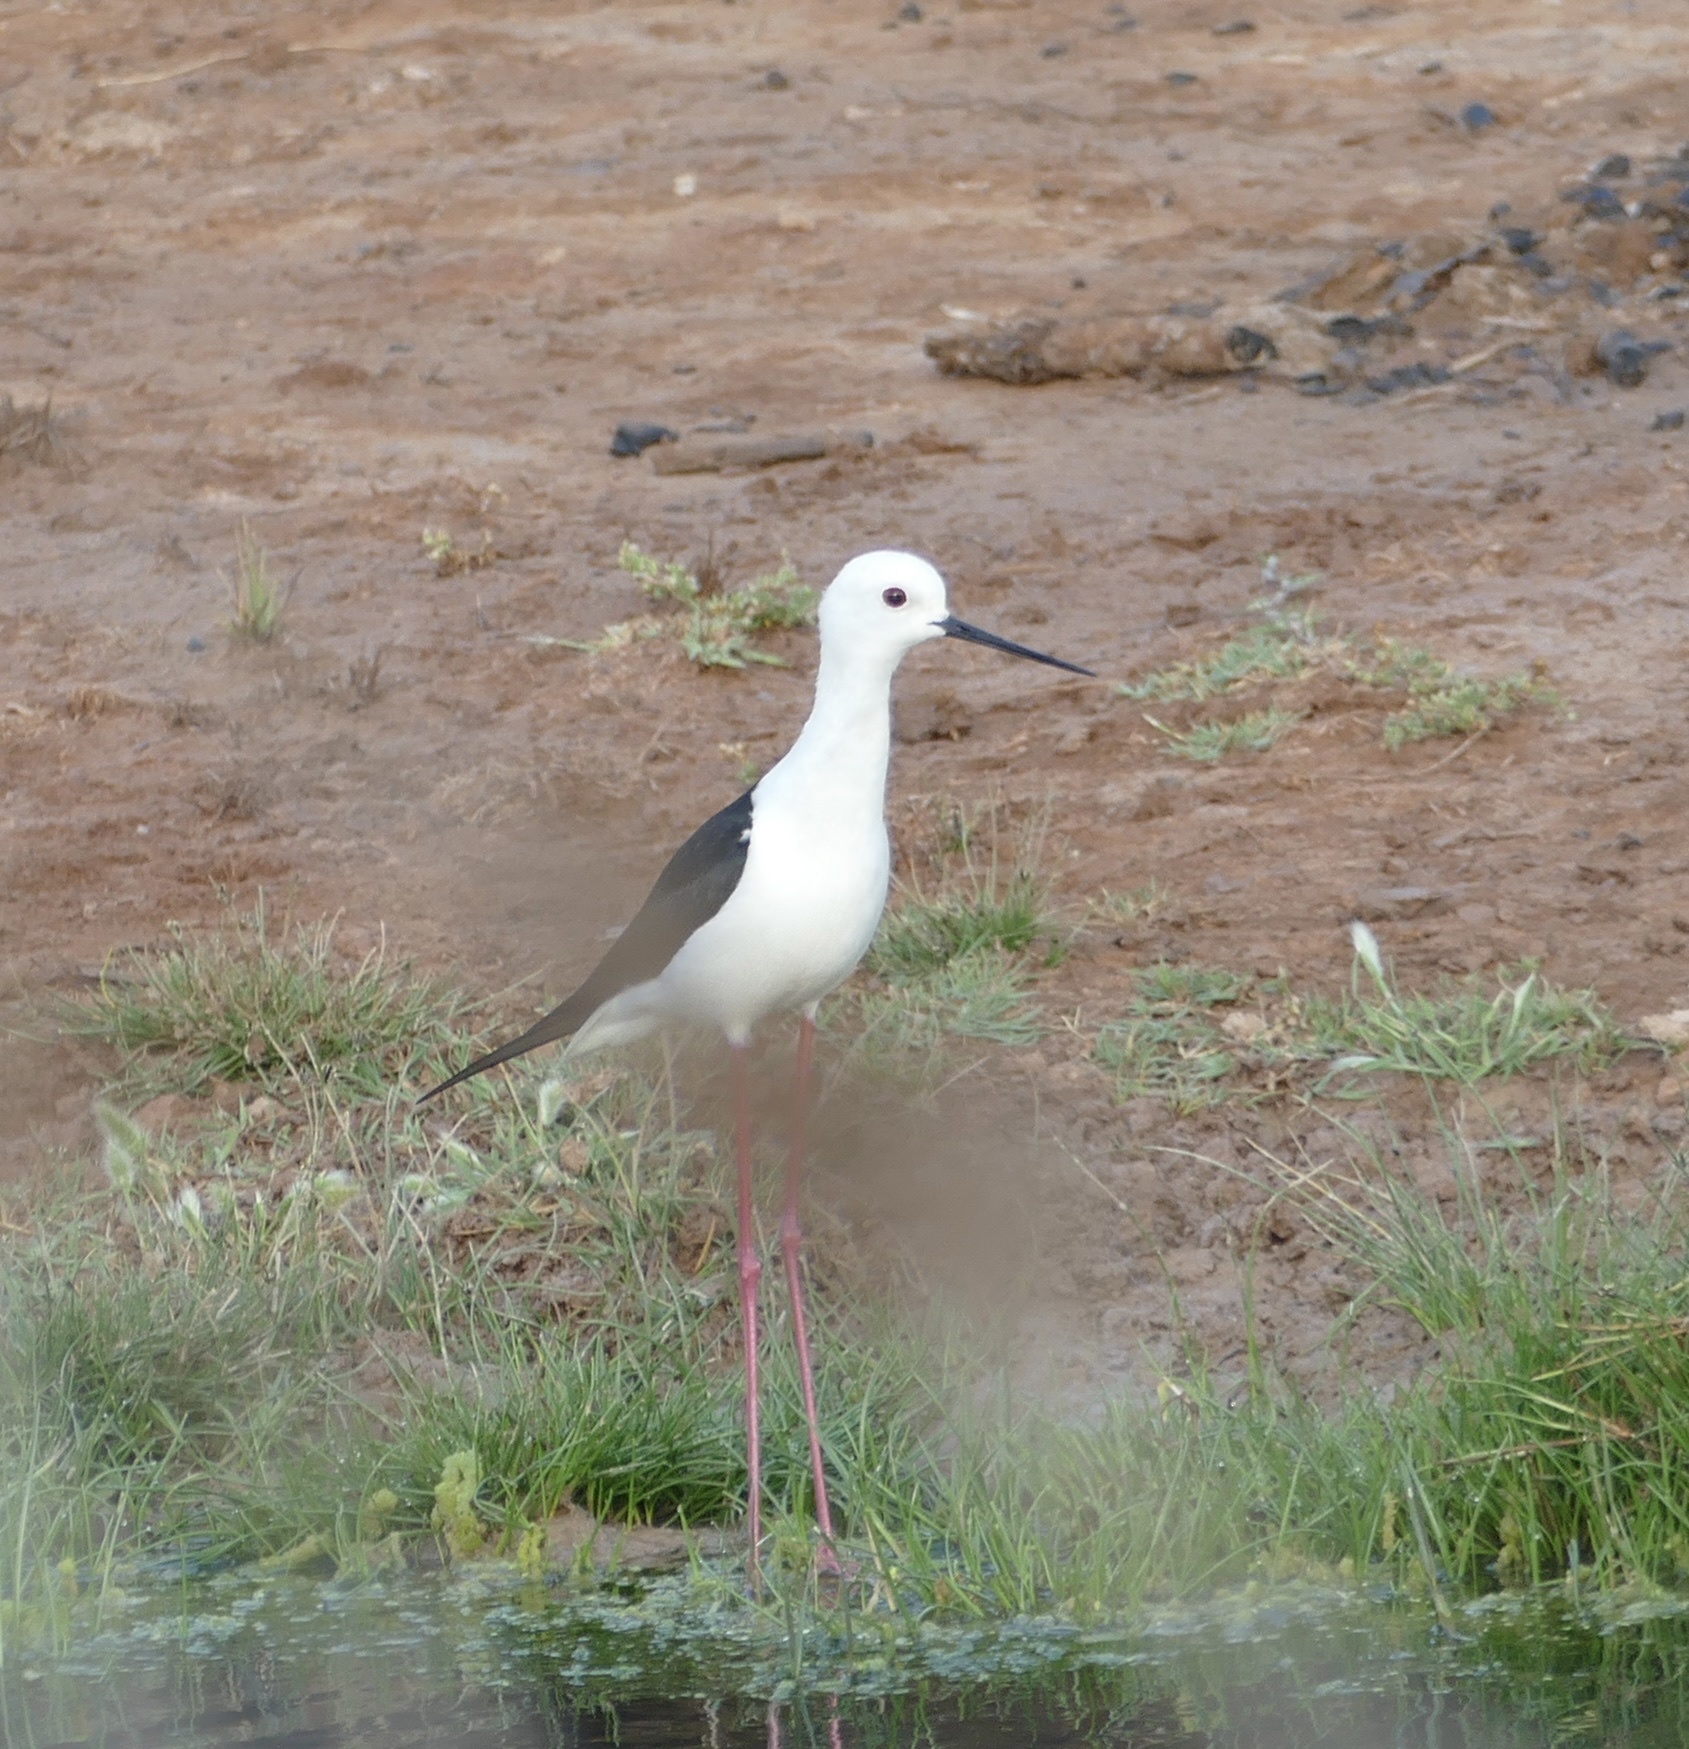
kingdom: Animalia
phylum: Chordata
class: Aves
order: Charadriiformes
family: Recurvirostridae
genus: Himantopus
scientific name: Himantopus himantopus
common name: Black-winged stilt
